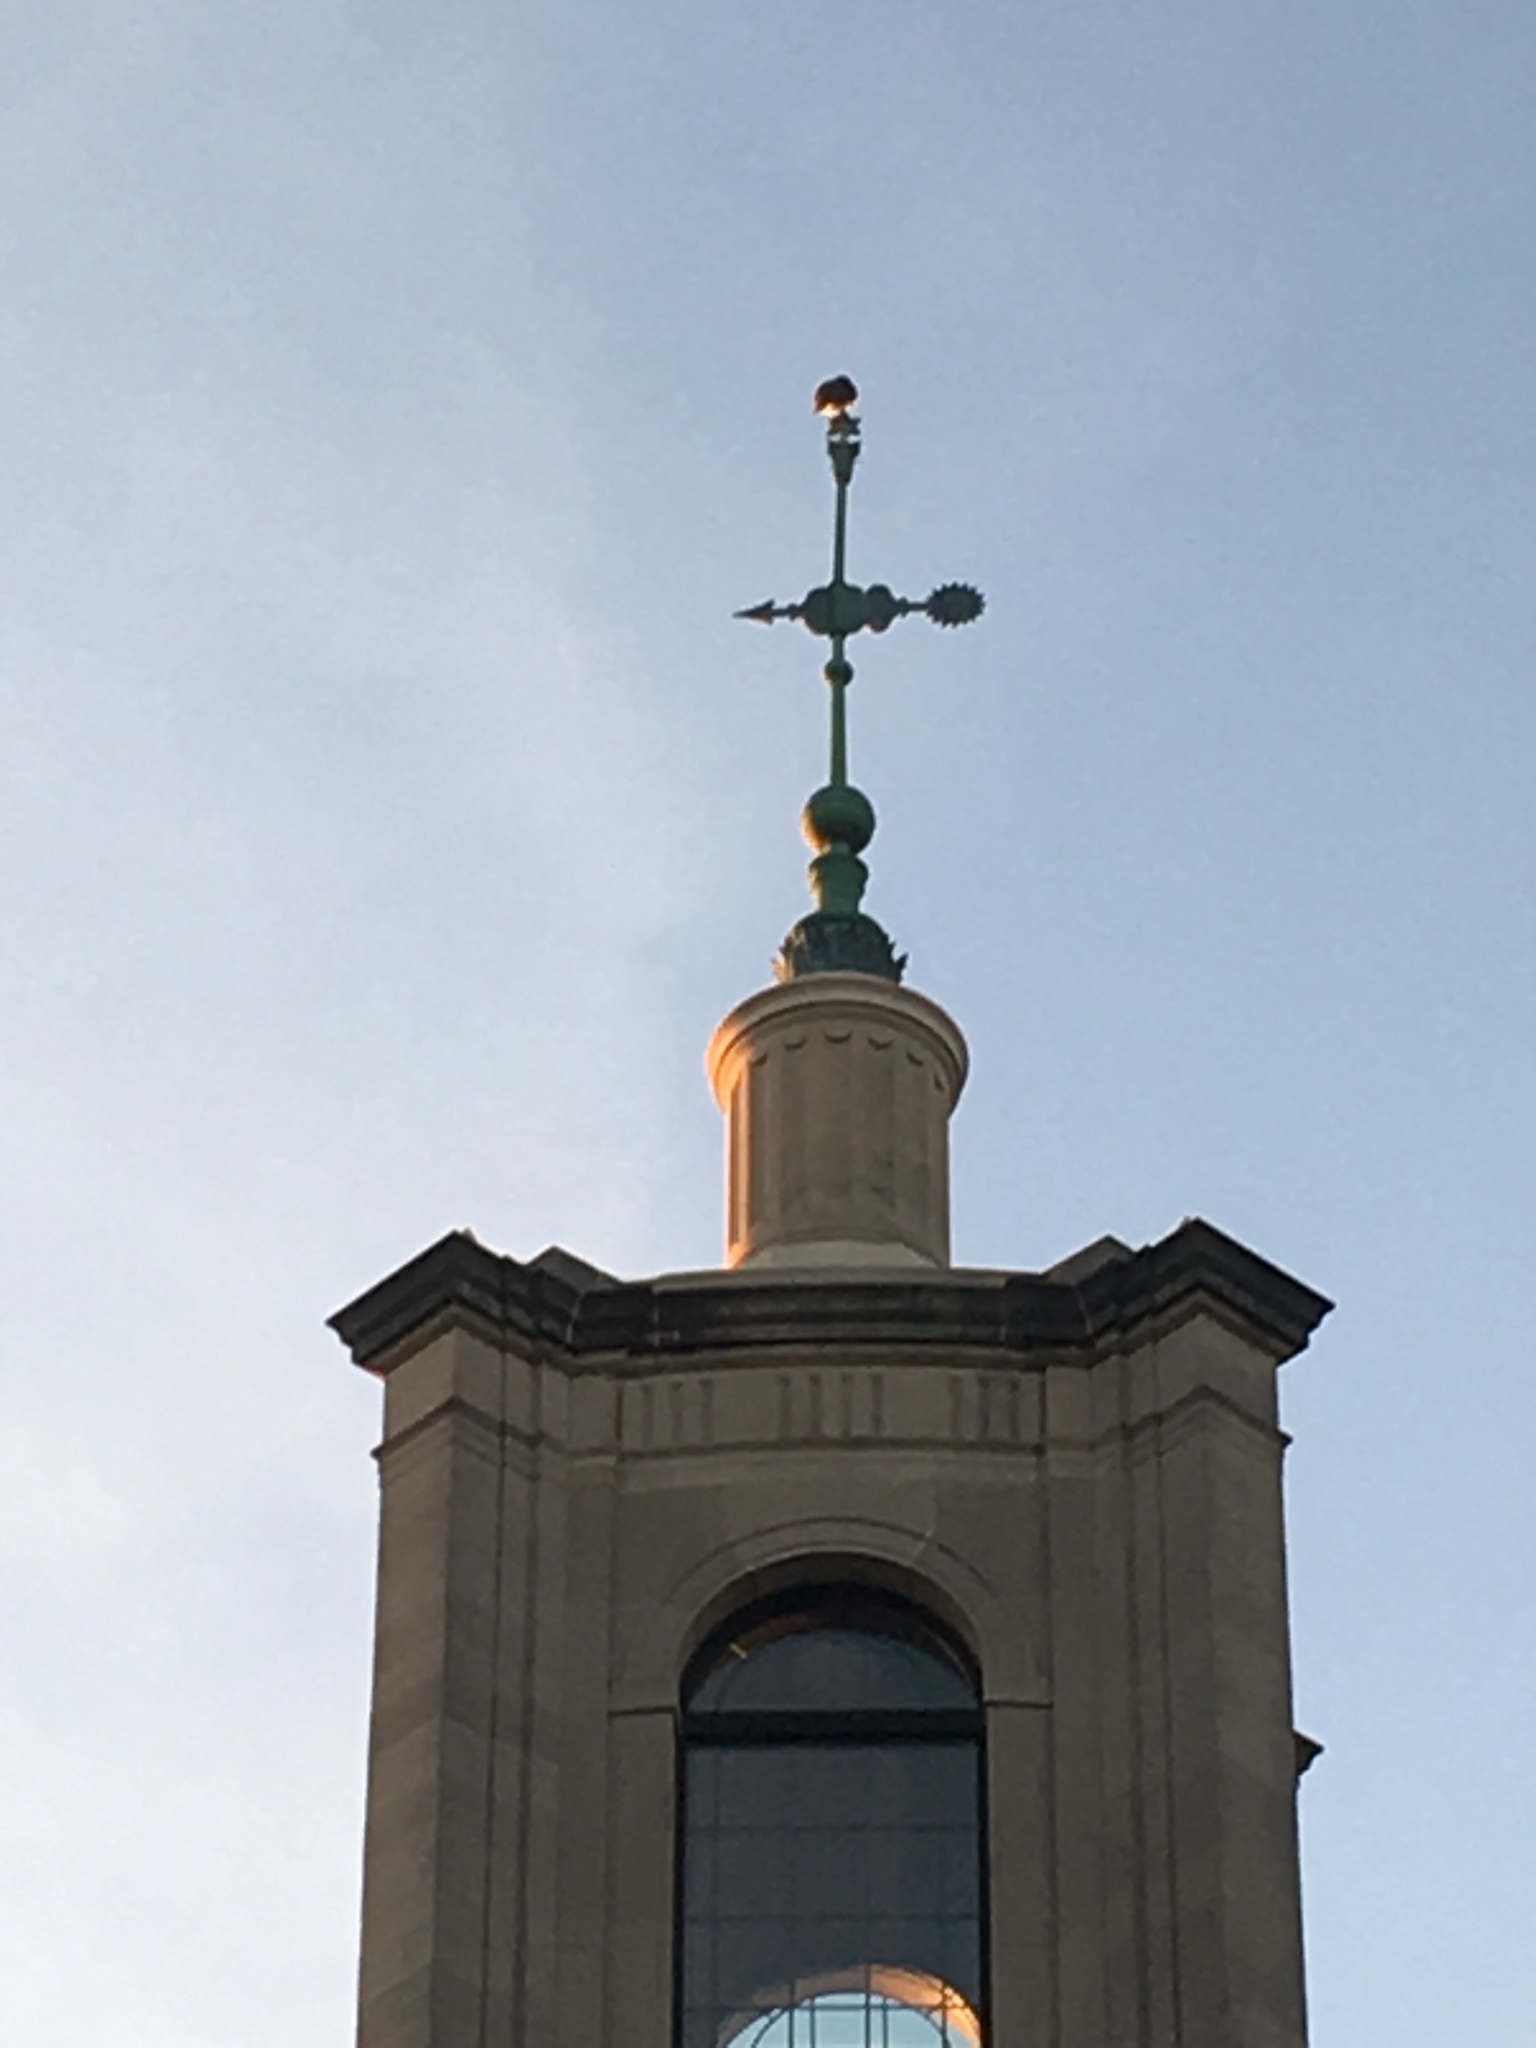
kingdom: Animalia
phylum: Chordata
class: Aves
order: Accipitriformes
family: Accipitridae
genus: Buteo
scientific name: Buteo jamaicensis
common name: Red-tailed hawk
